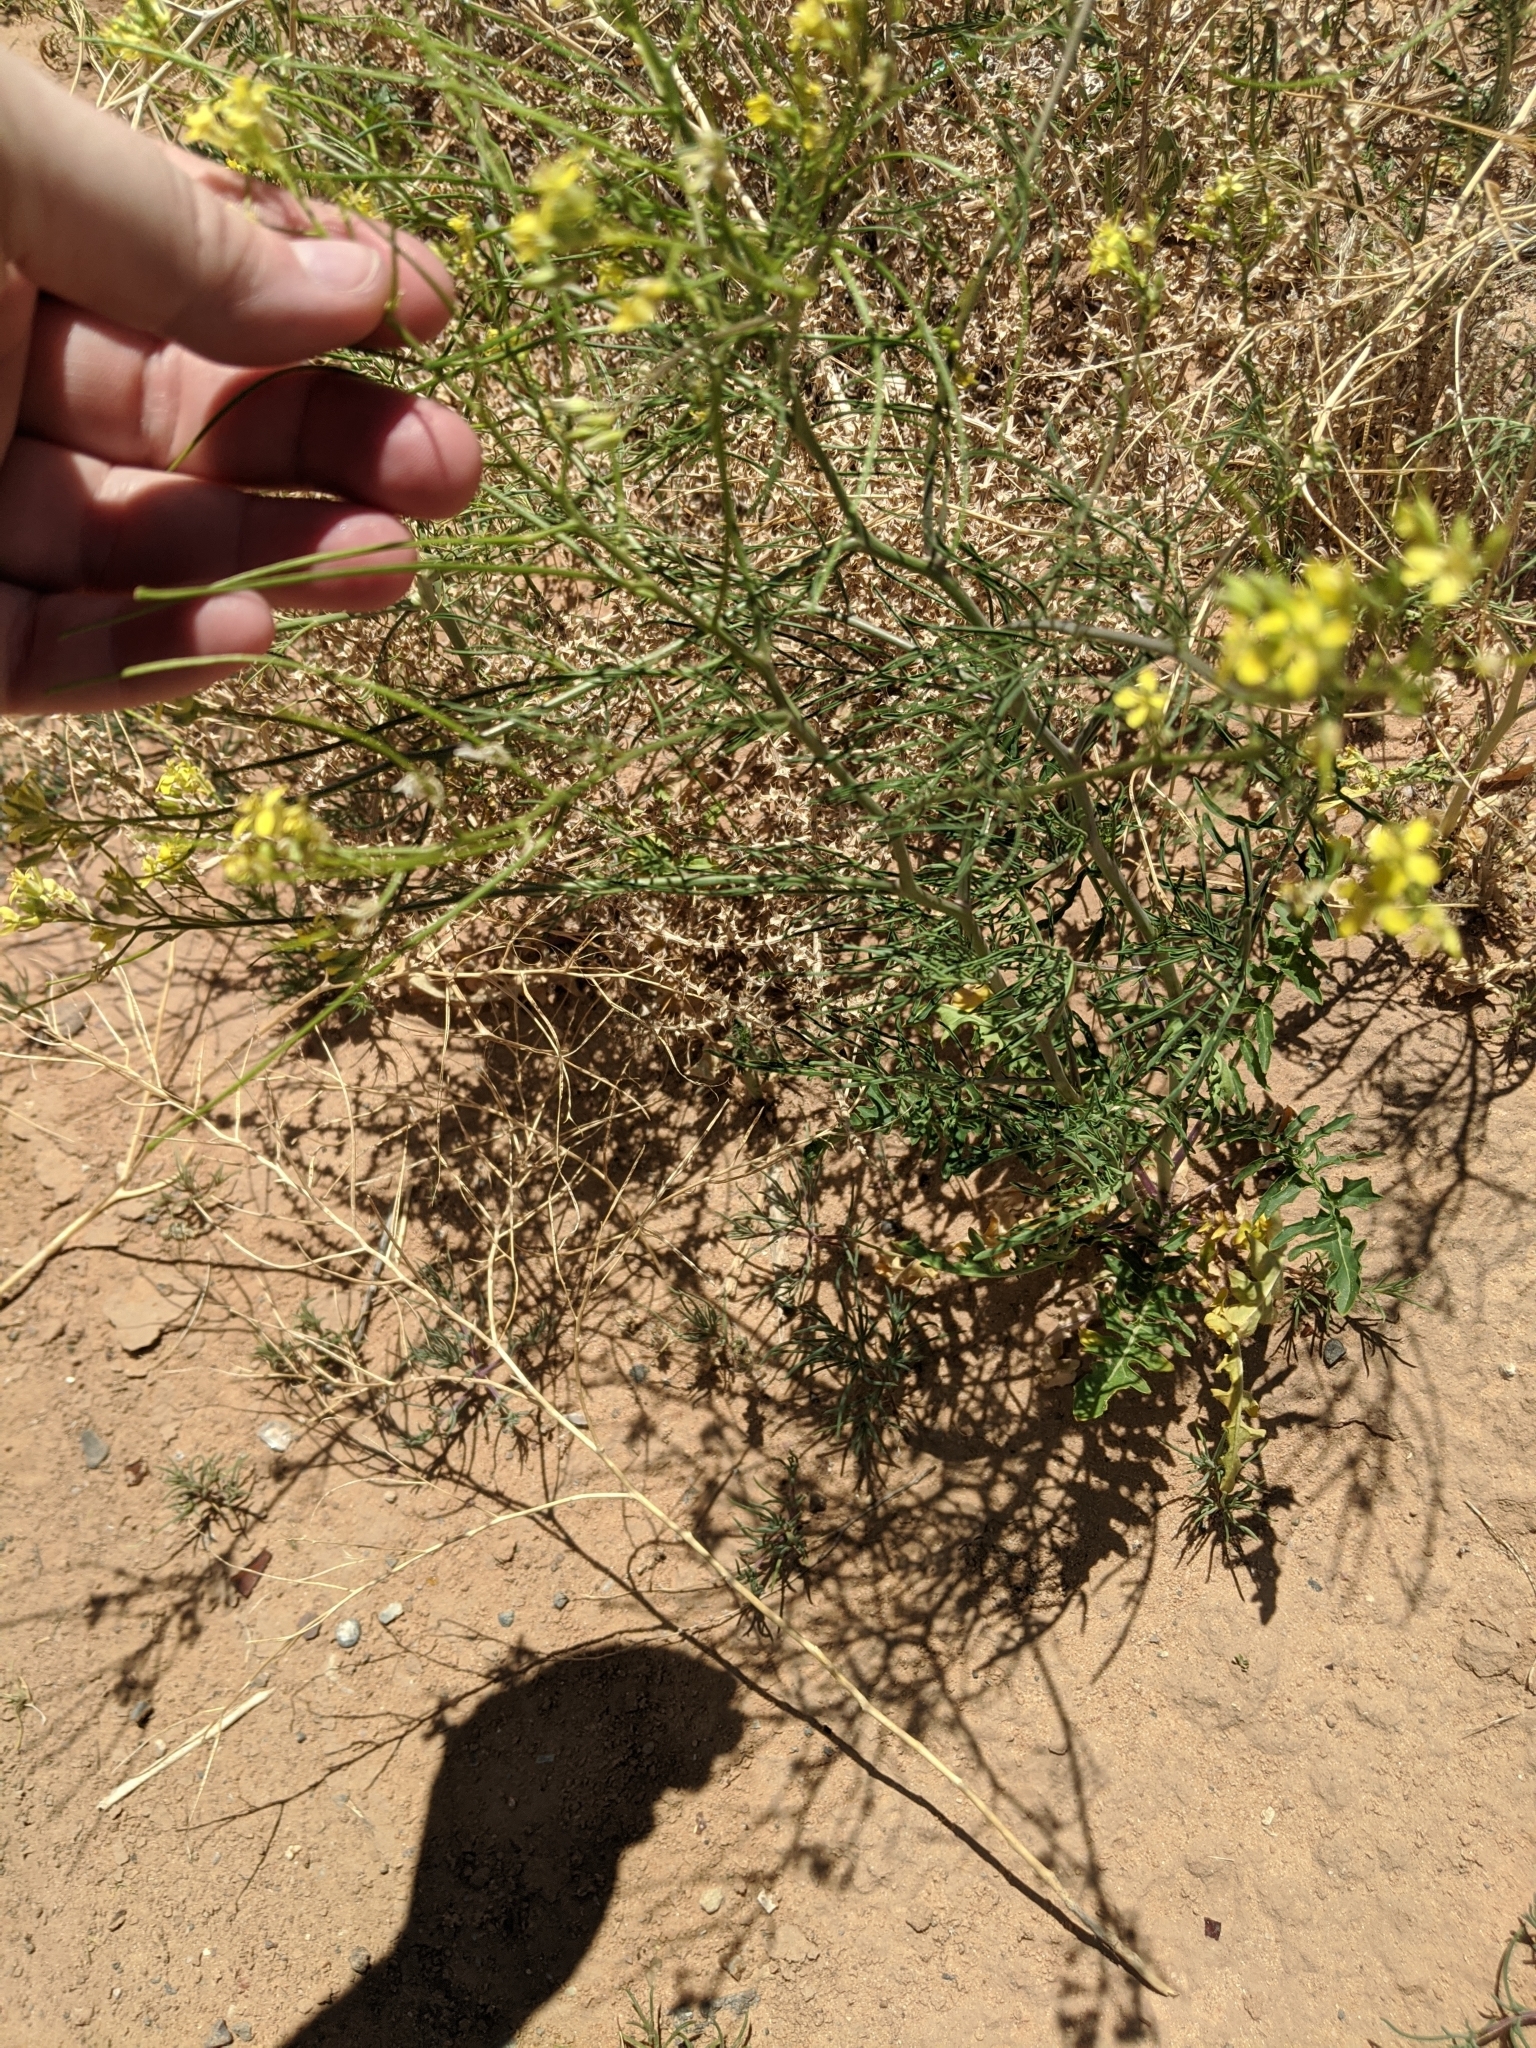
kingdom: Plantae
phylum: Tracheophyta
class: Magnoliopsida
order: Brassicales
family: Brassicaceae
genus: Sisymbrium
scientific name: Sisymbrium altissimum
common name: Tall rocket
